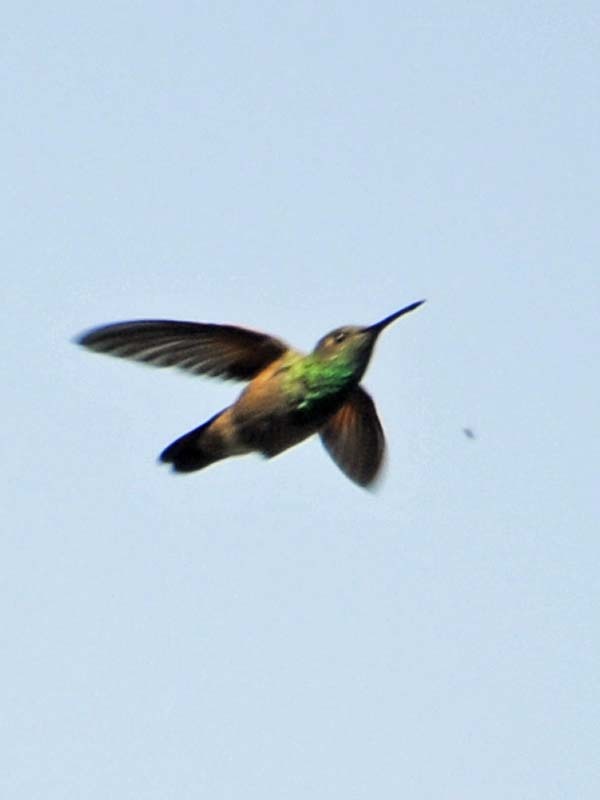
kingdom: Animalia
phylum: Chordata
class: Aves
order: Apodiformes
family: Trochilidae
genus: Saucerottia
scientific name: Saucerottia beryllina
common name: Berylline hummingbird
